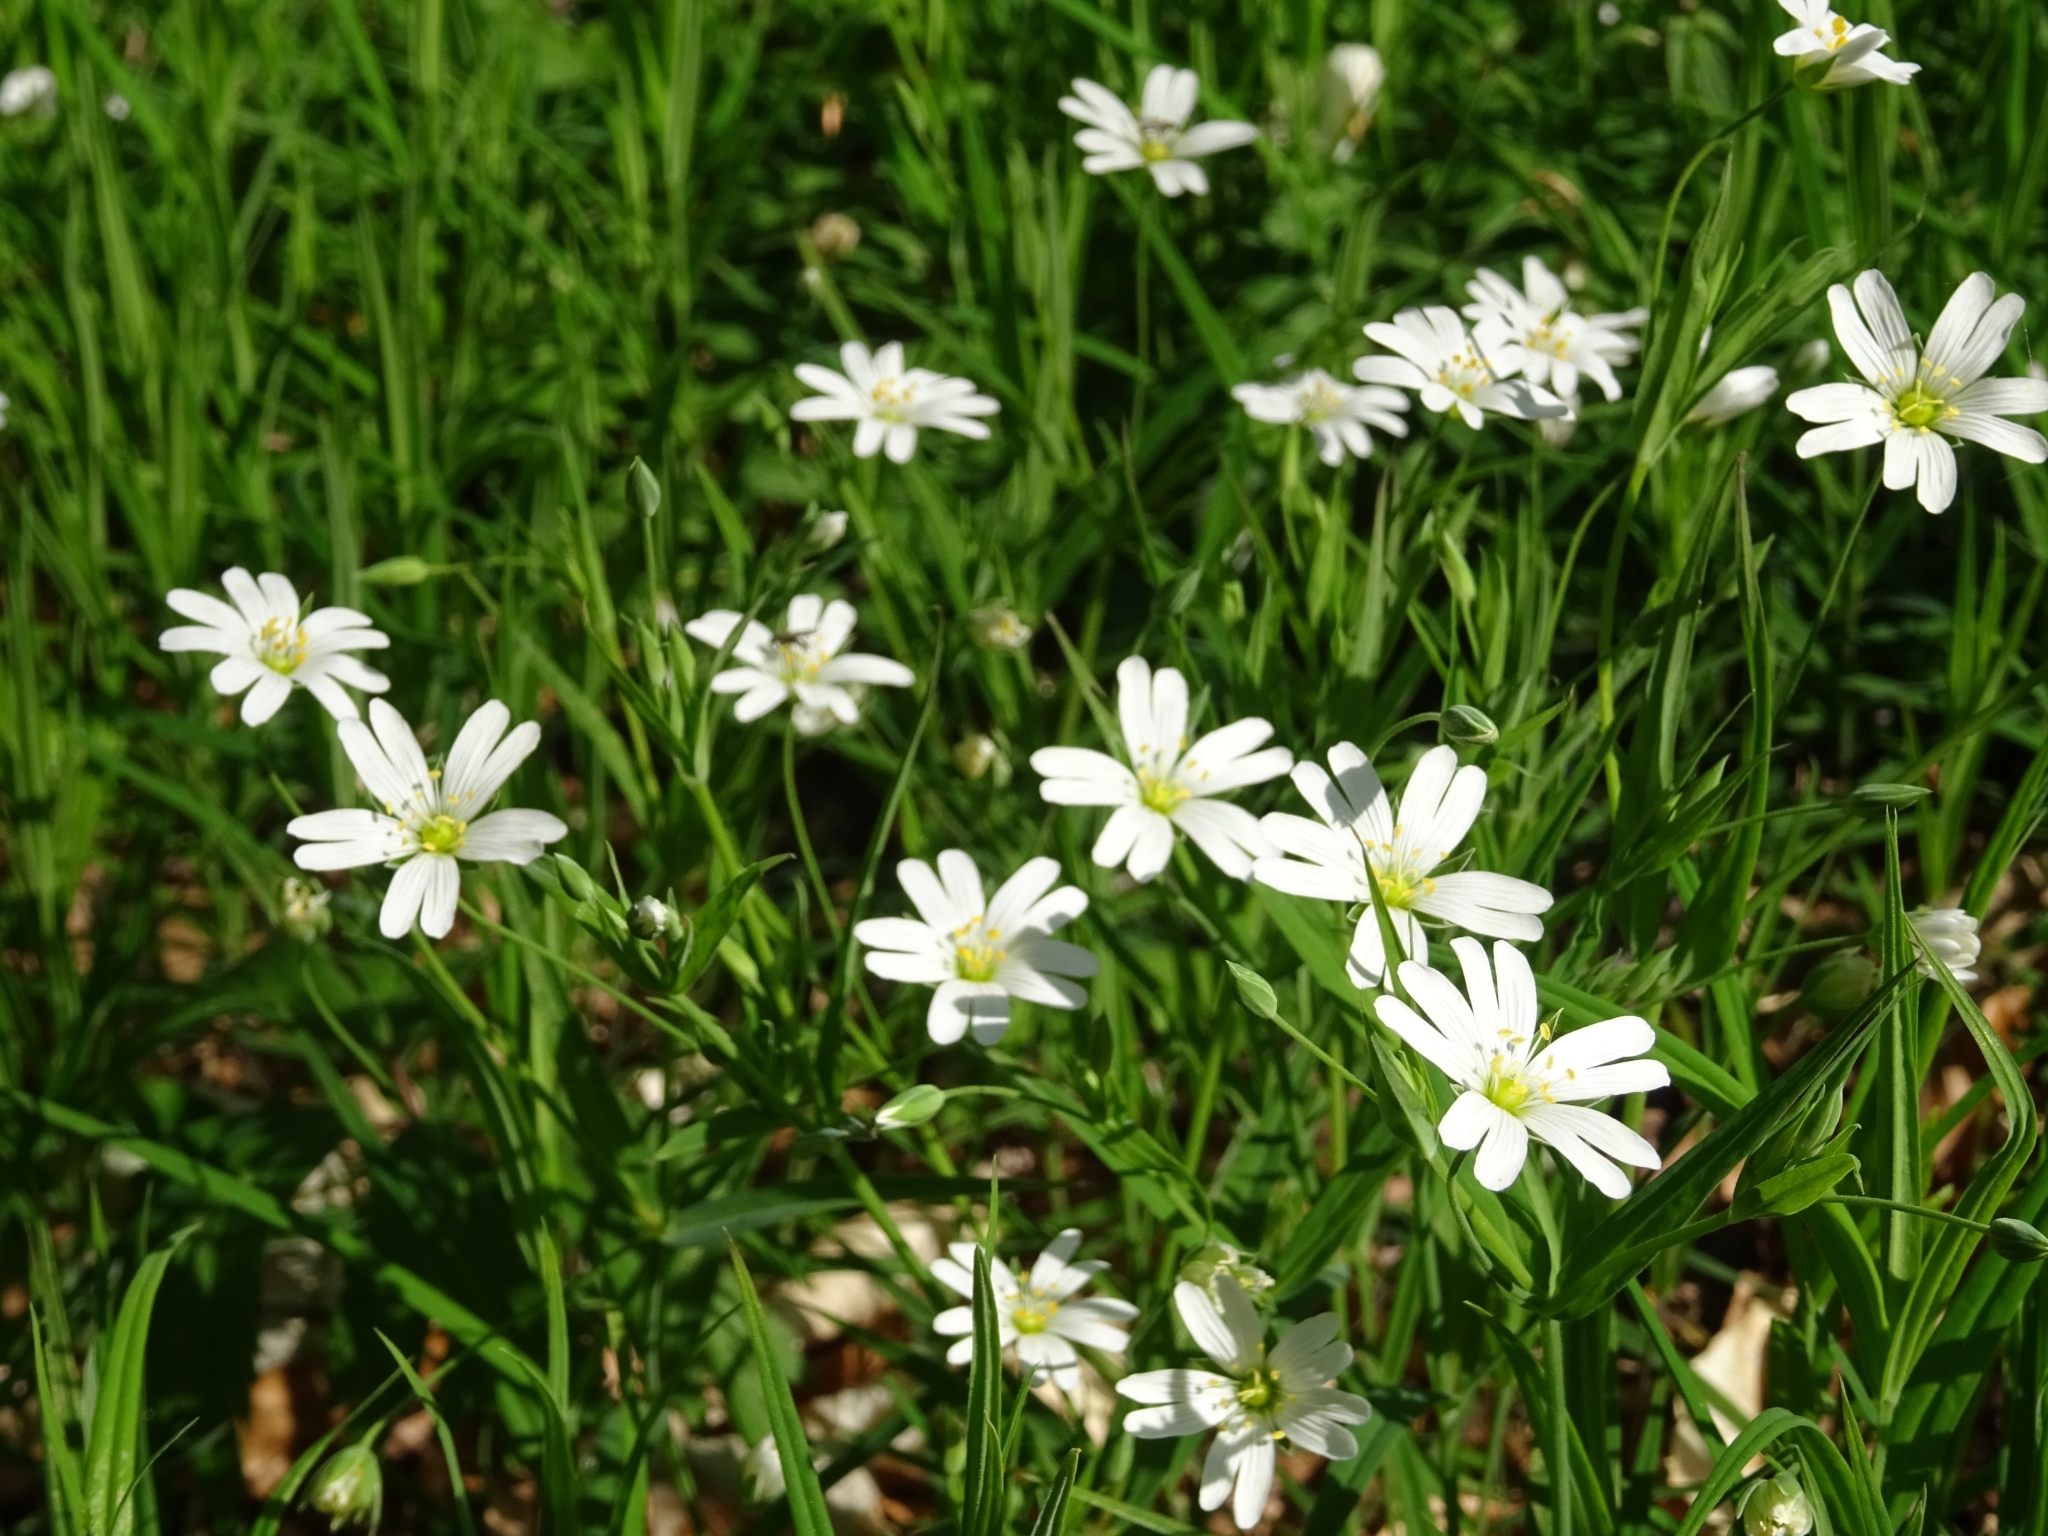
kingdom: Plantae
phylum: Tracheophyta
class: Magnoliopsida
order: Caryophyllales
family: Caryophyllaceae
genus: Rabelera
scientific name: Rabelera holostea
